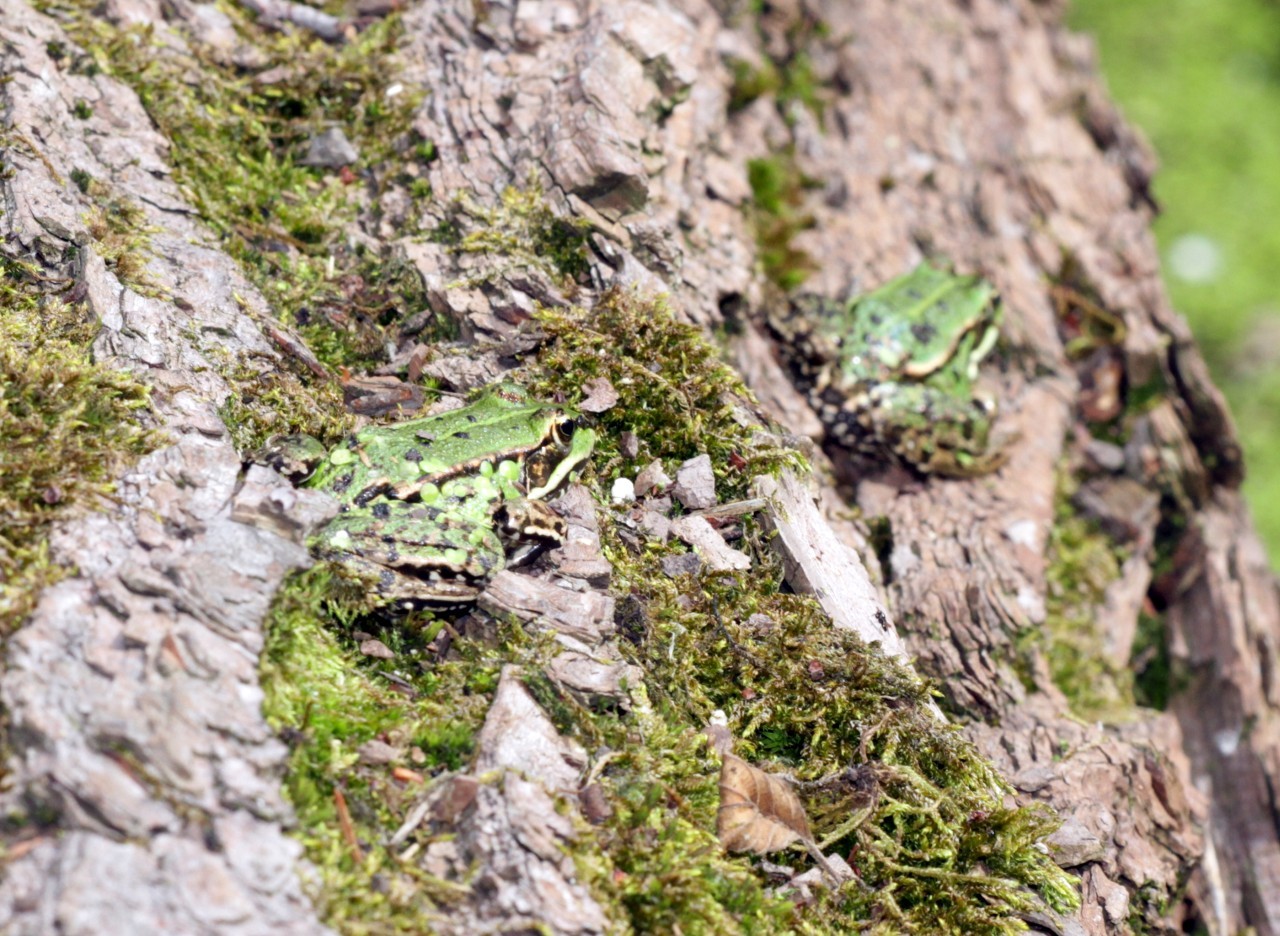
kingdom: Animalia
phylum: Chordata
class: Amphibia
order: Anura
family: Ranidae
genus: Pelophylax
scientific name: Pelophylax
